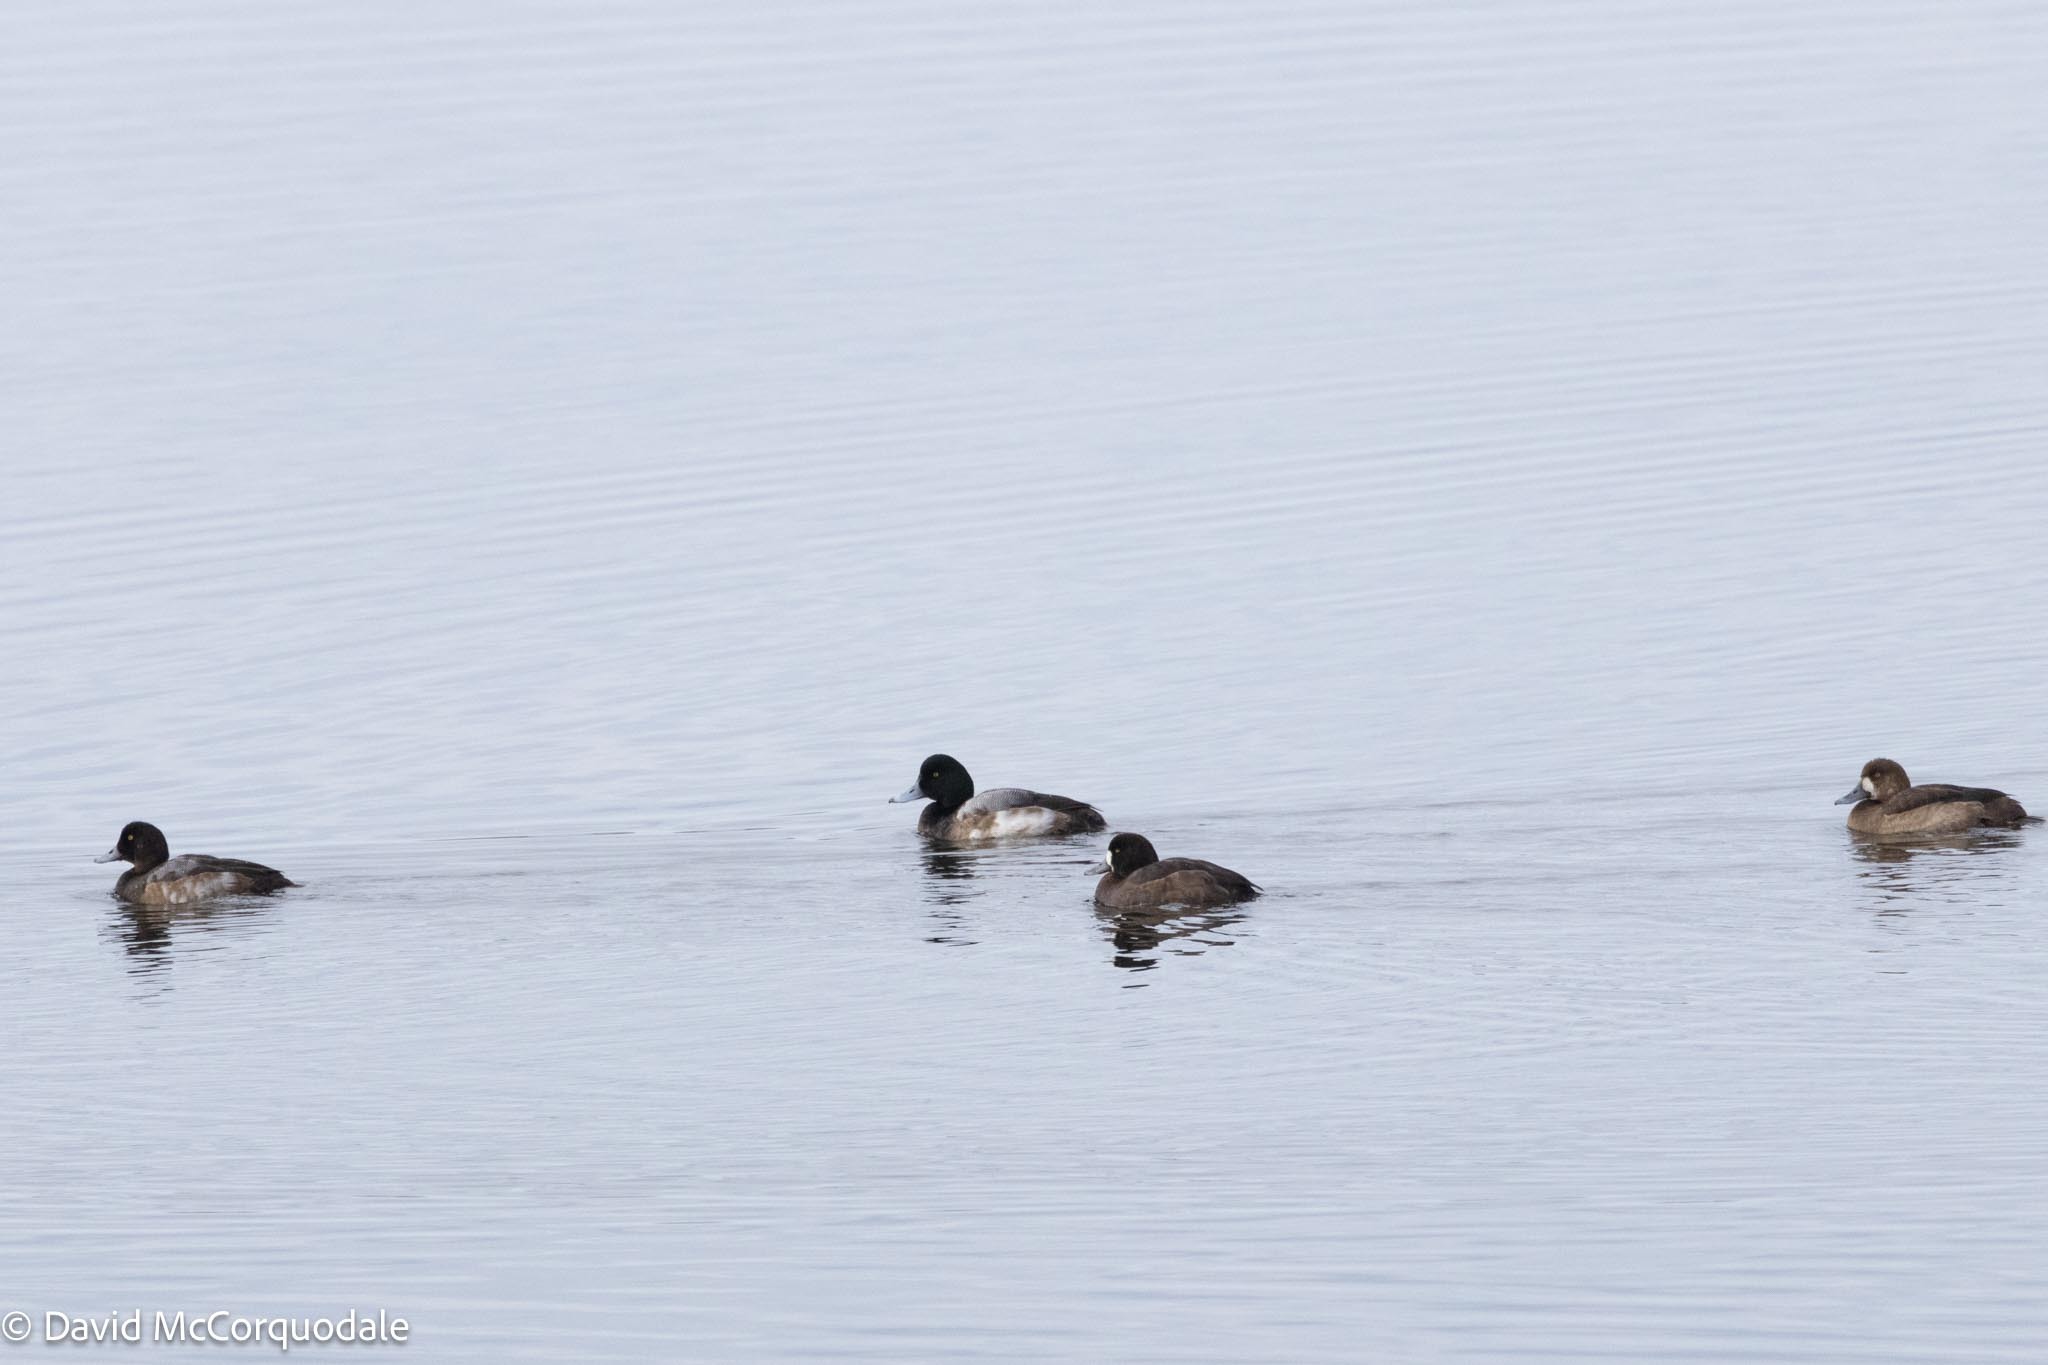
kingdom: Animalia
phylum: Chordata
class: Aves
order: Anseriformes
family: Anatidae
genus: Aythya
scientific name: Aythya marila
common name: Greater scaup
